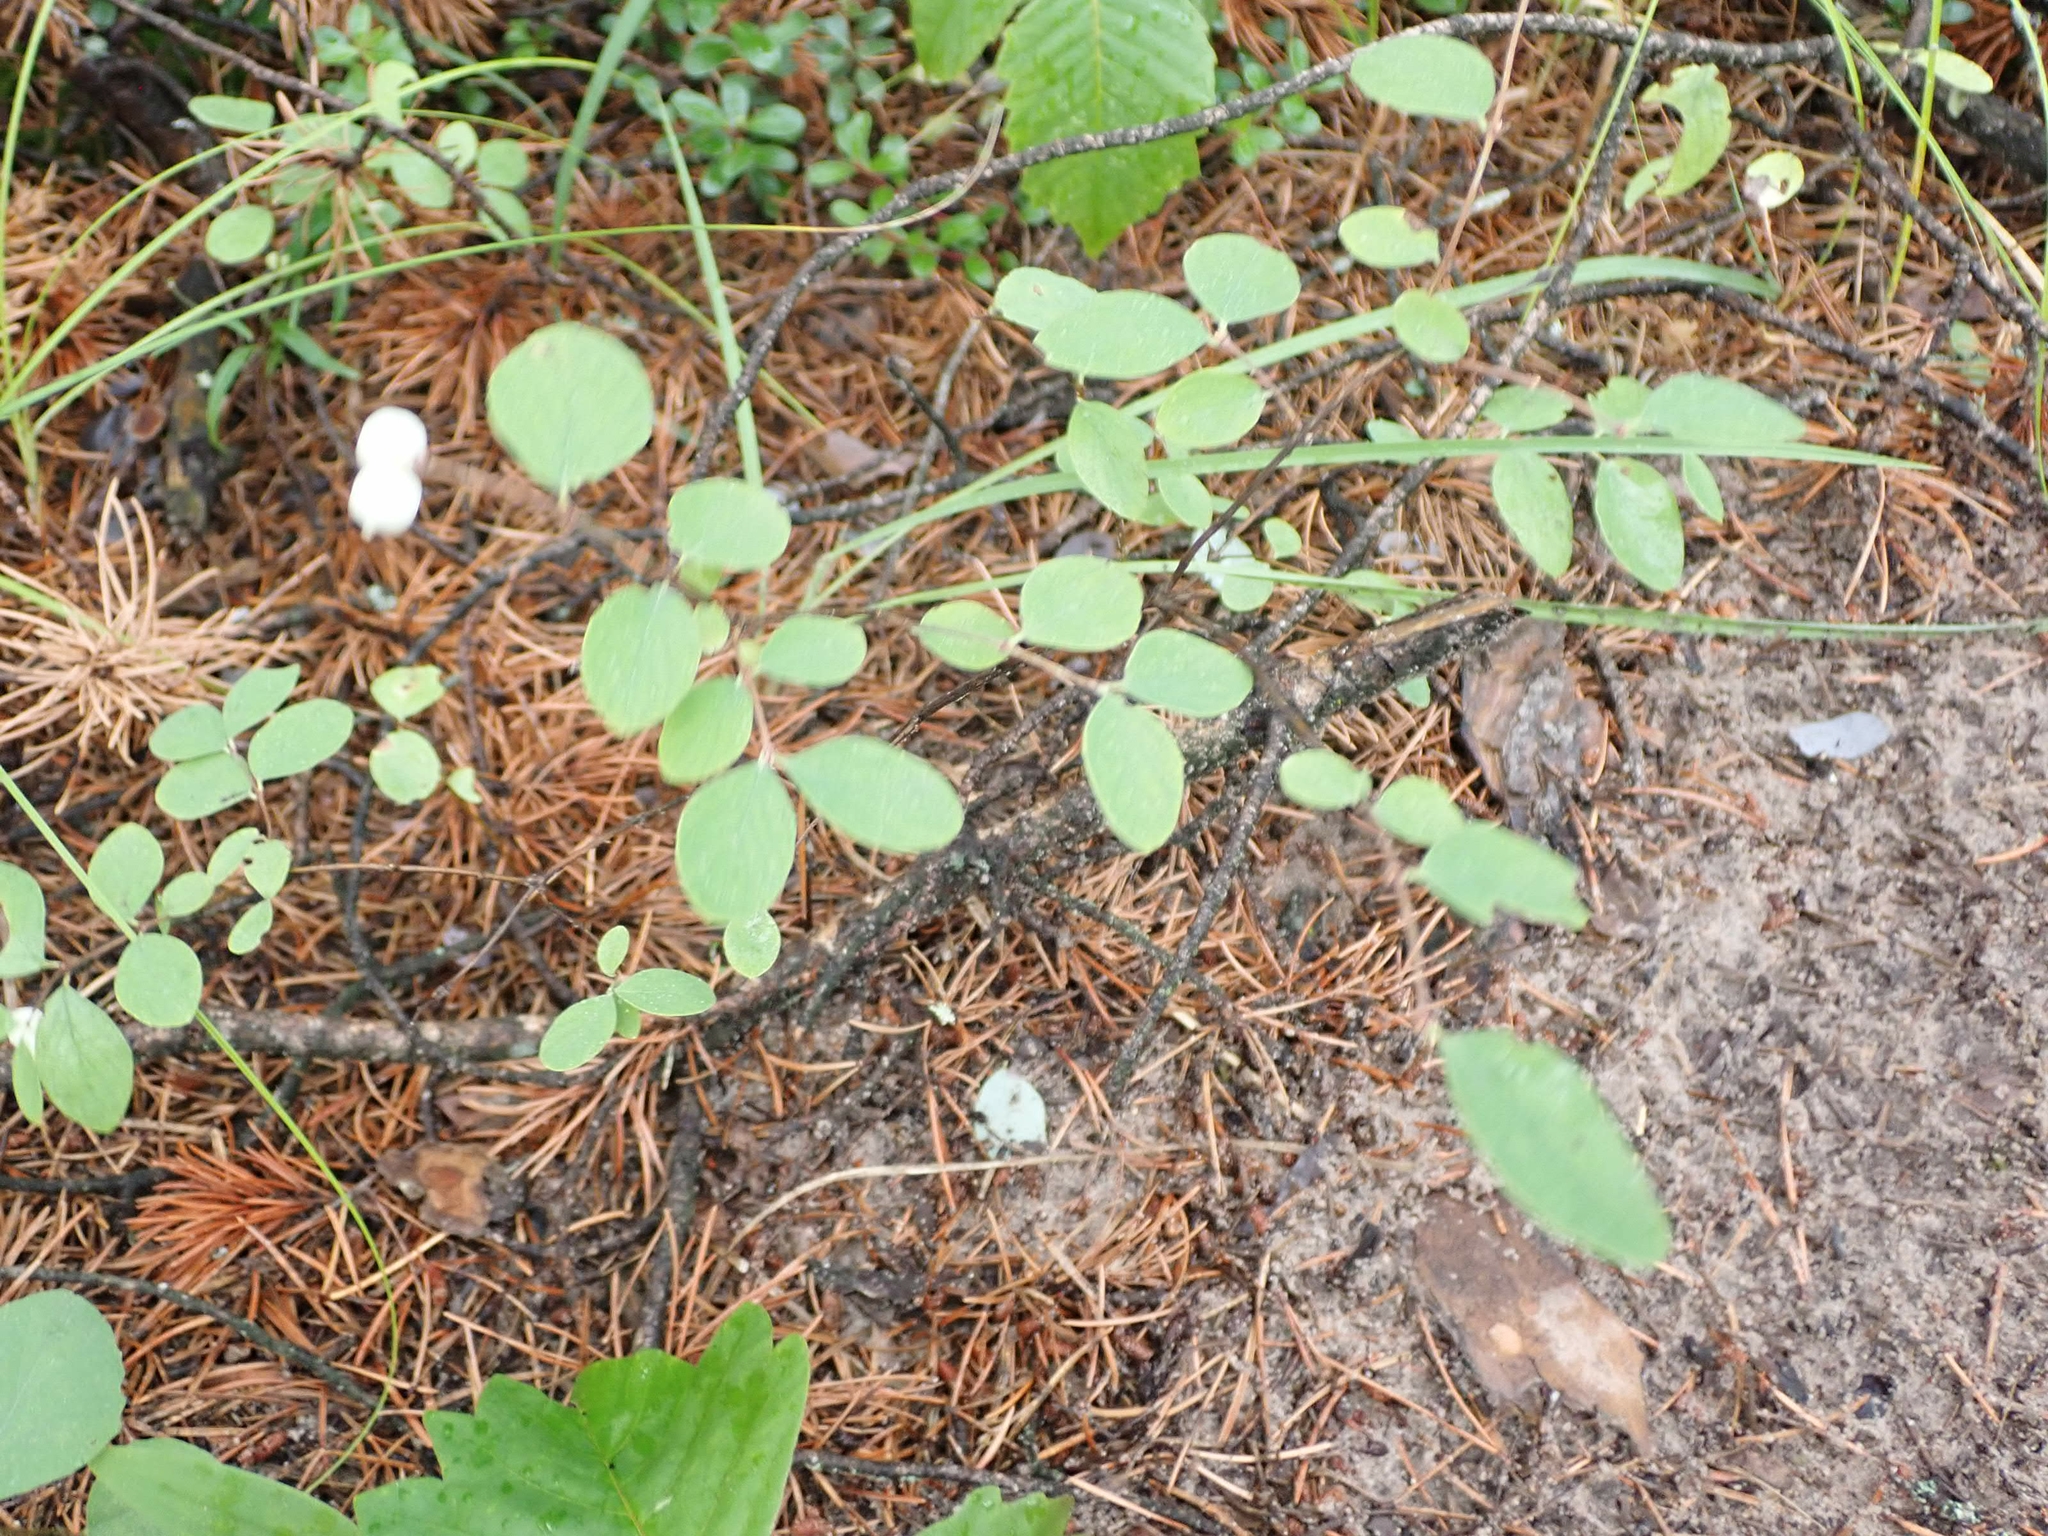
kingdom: Plantae
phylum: Tracheophyta
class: Magnoliopsida
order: Dipsacales
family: Caprifoliaceae
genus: Symphoricarpos
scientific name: Symphoricarpos occidentalis
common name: Wolfberry
